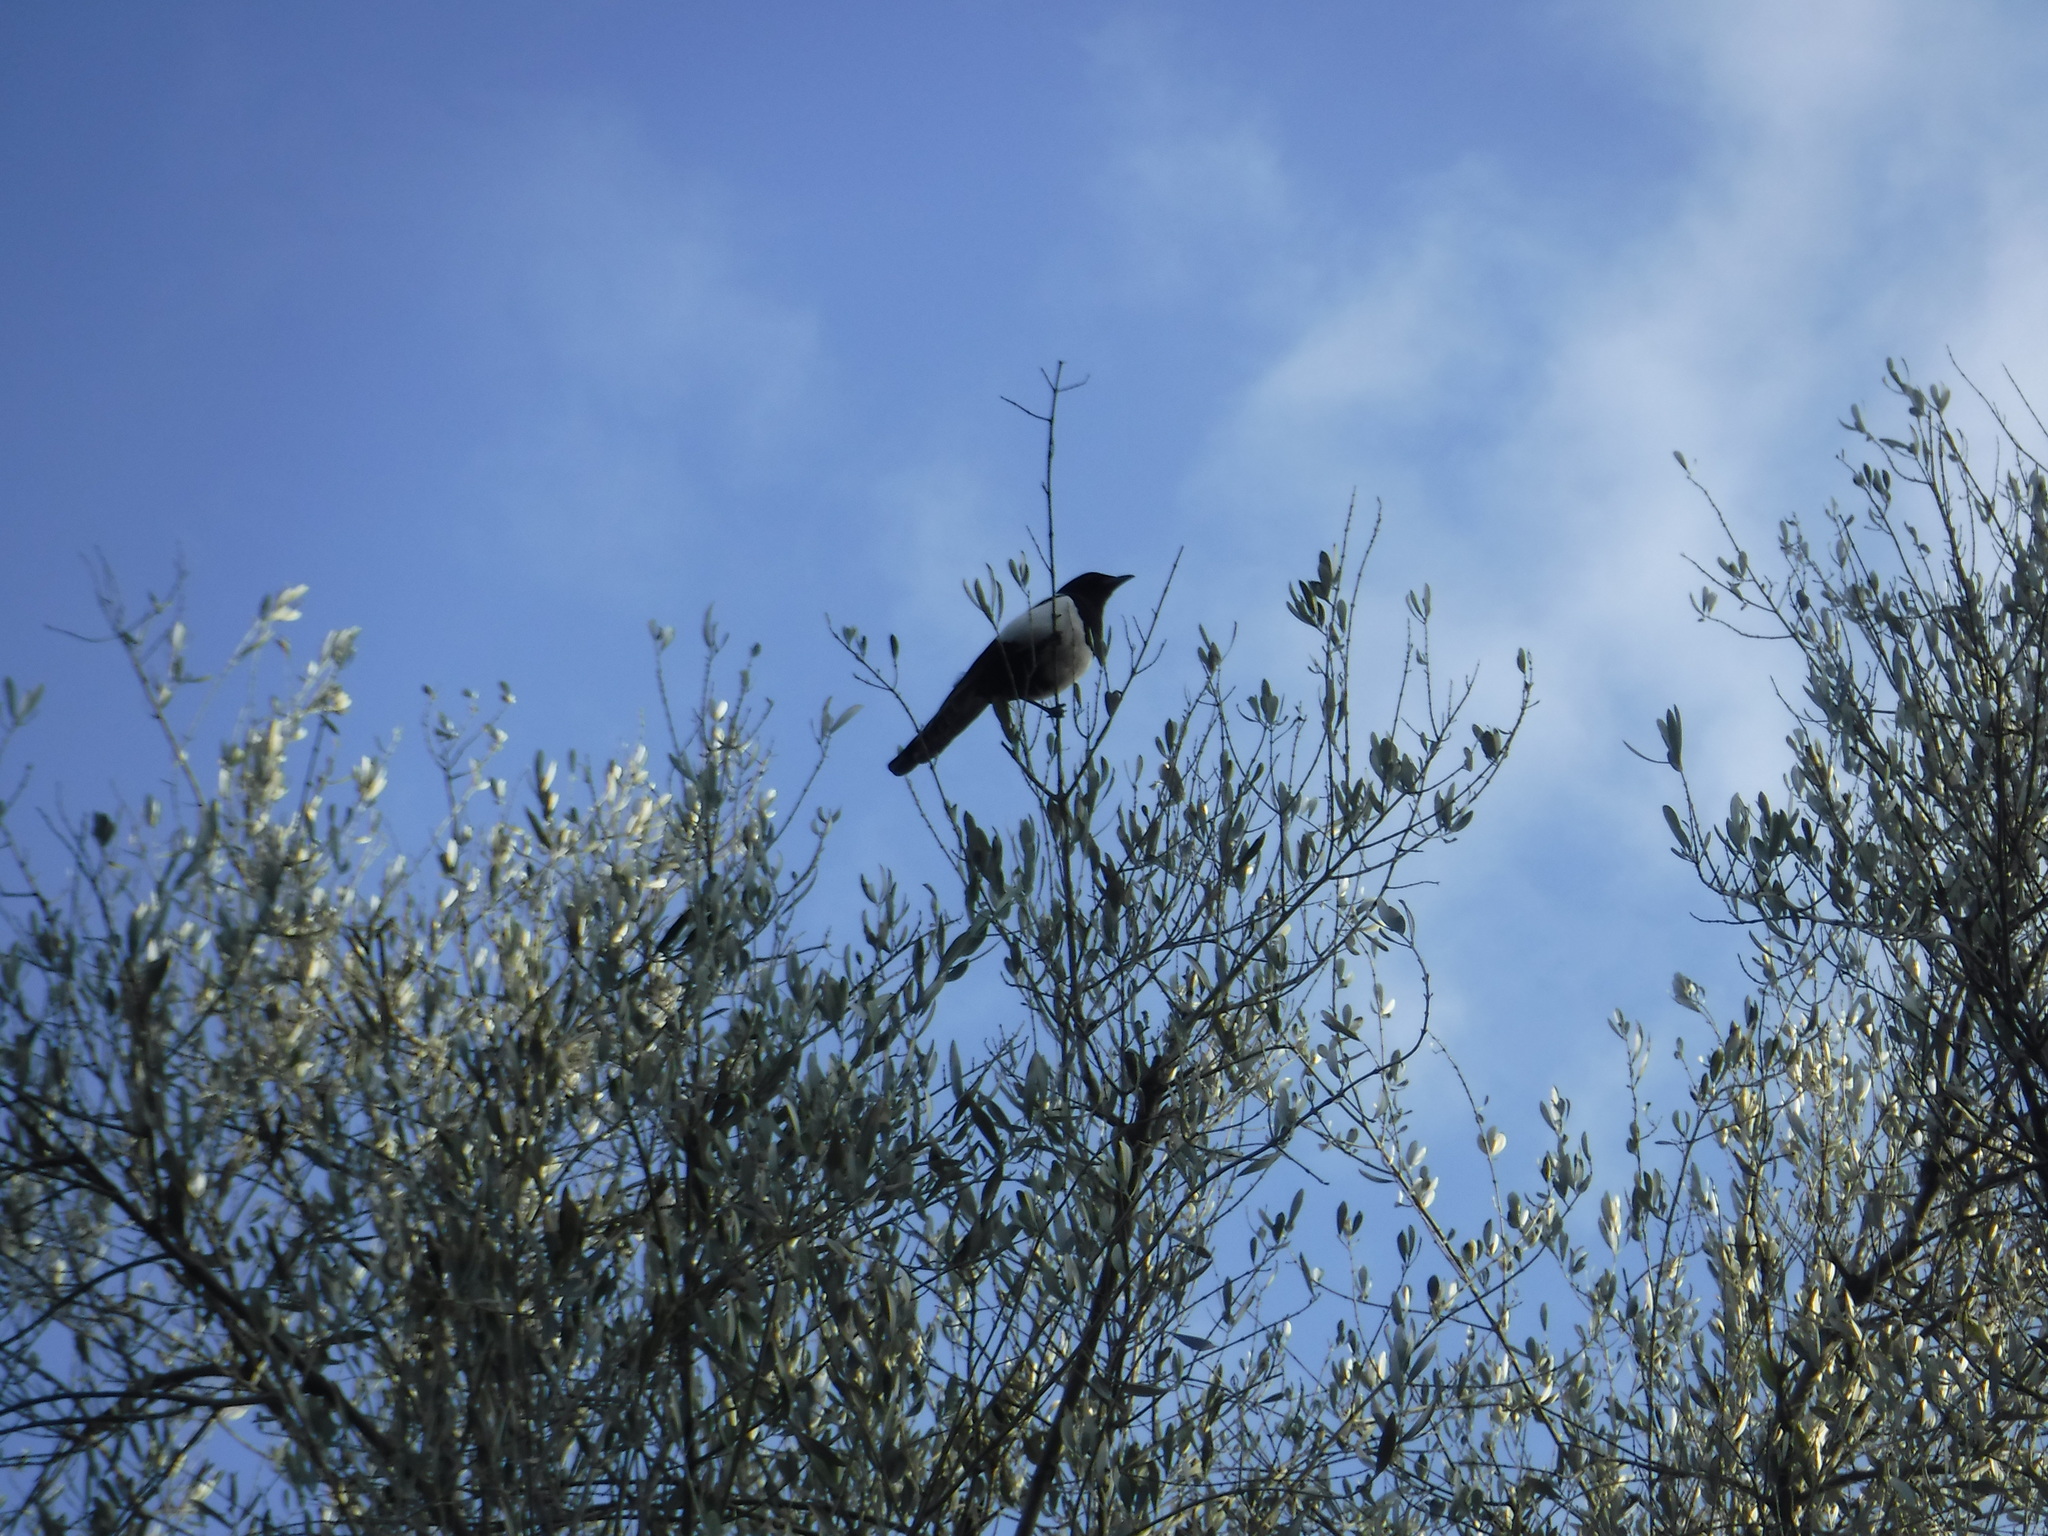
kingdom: Animalia
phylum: Chordata
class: Aves
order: Passeriformes
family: Corvidae
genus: Pica
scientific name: Pica pica
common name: Eurasian magpie
